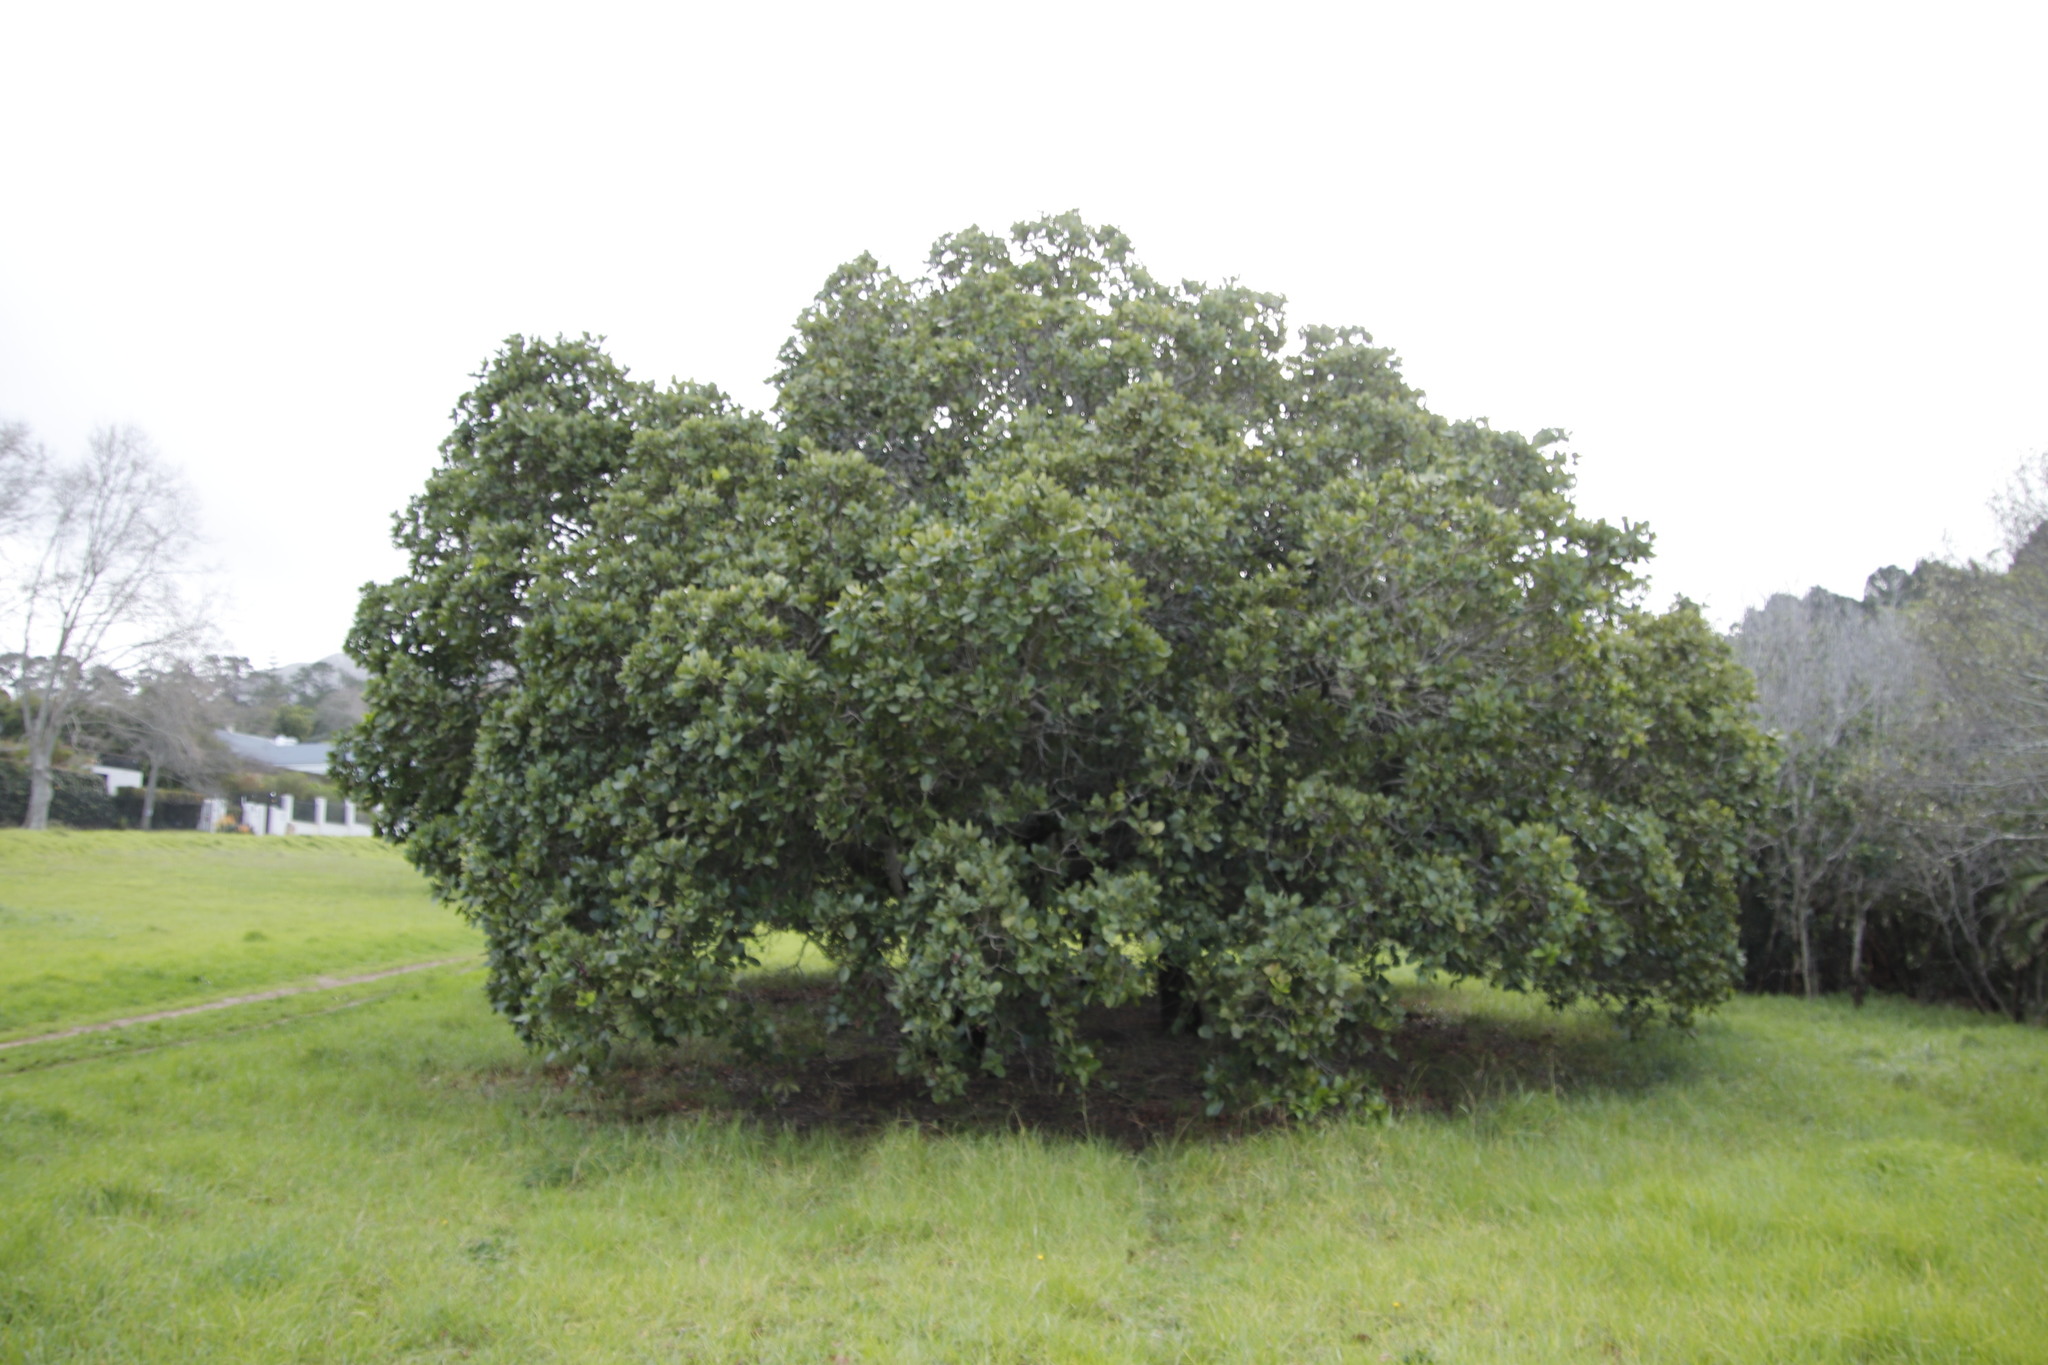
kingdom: Plantae
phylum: Tracheophyta
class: Magnoliopsida
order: Myrtales
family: Myrtaceae
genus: Syzygium
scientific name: Syzygium cordatum
